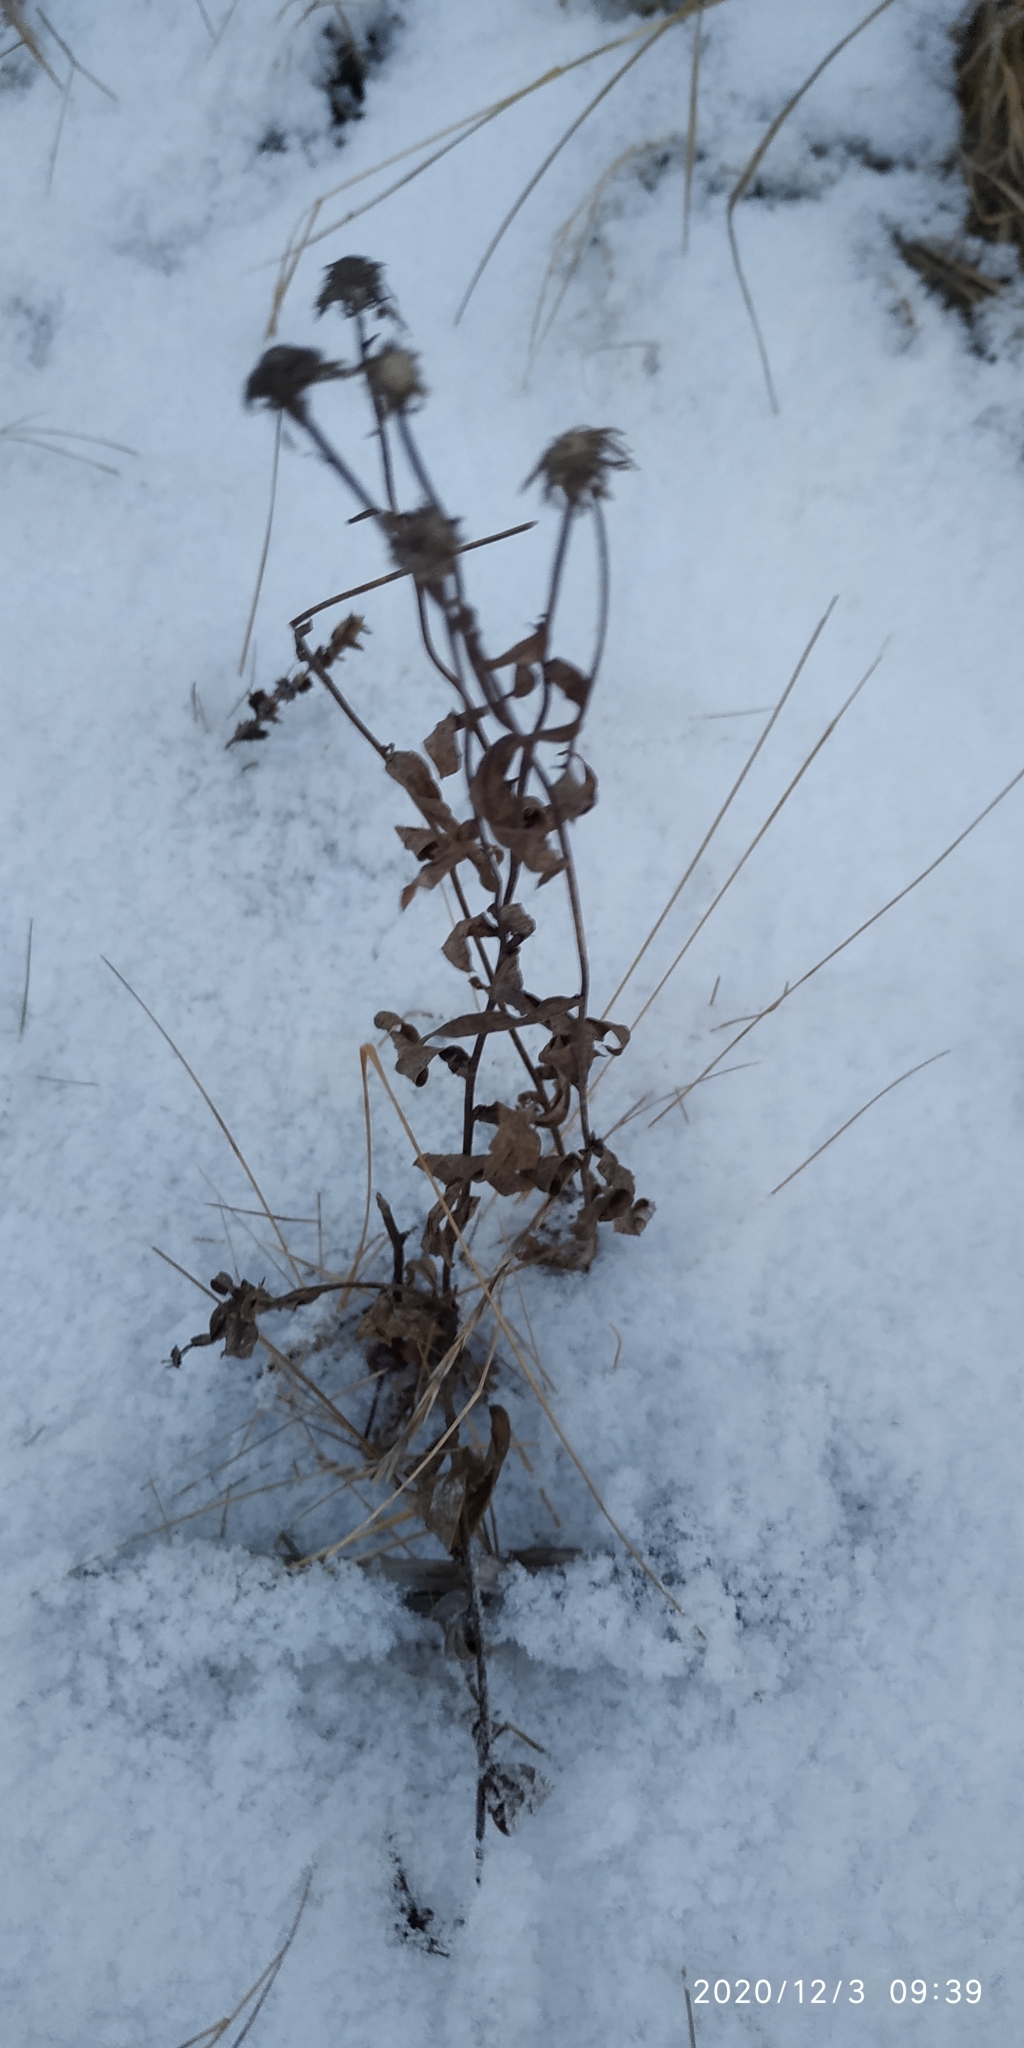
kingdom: Plantae
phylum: Tracheophyta
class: Magnoliopsida
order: Asterales
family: Asteraceae
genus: Pentanema
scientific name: Pentanema britannicum
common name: British elecampane
